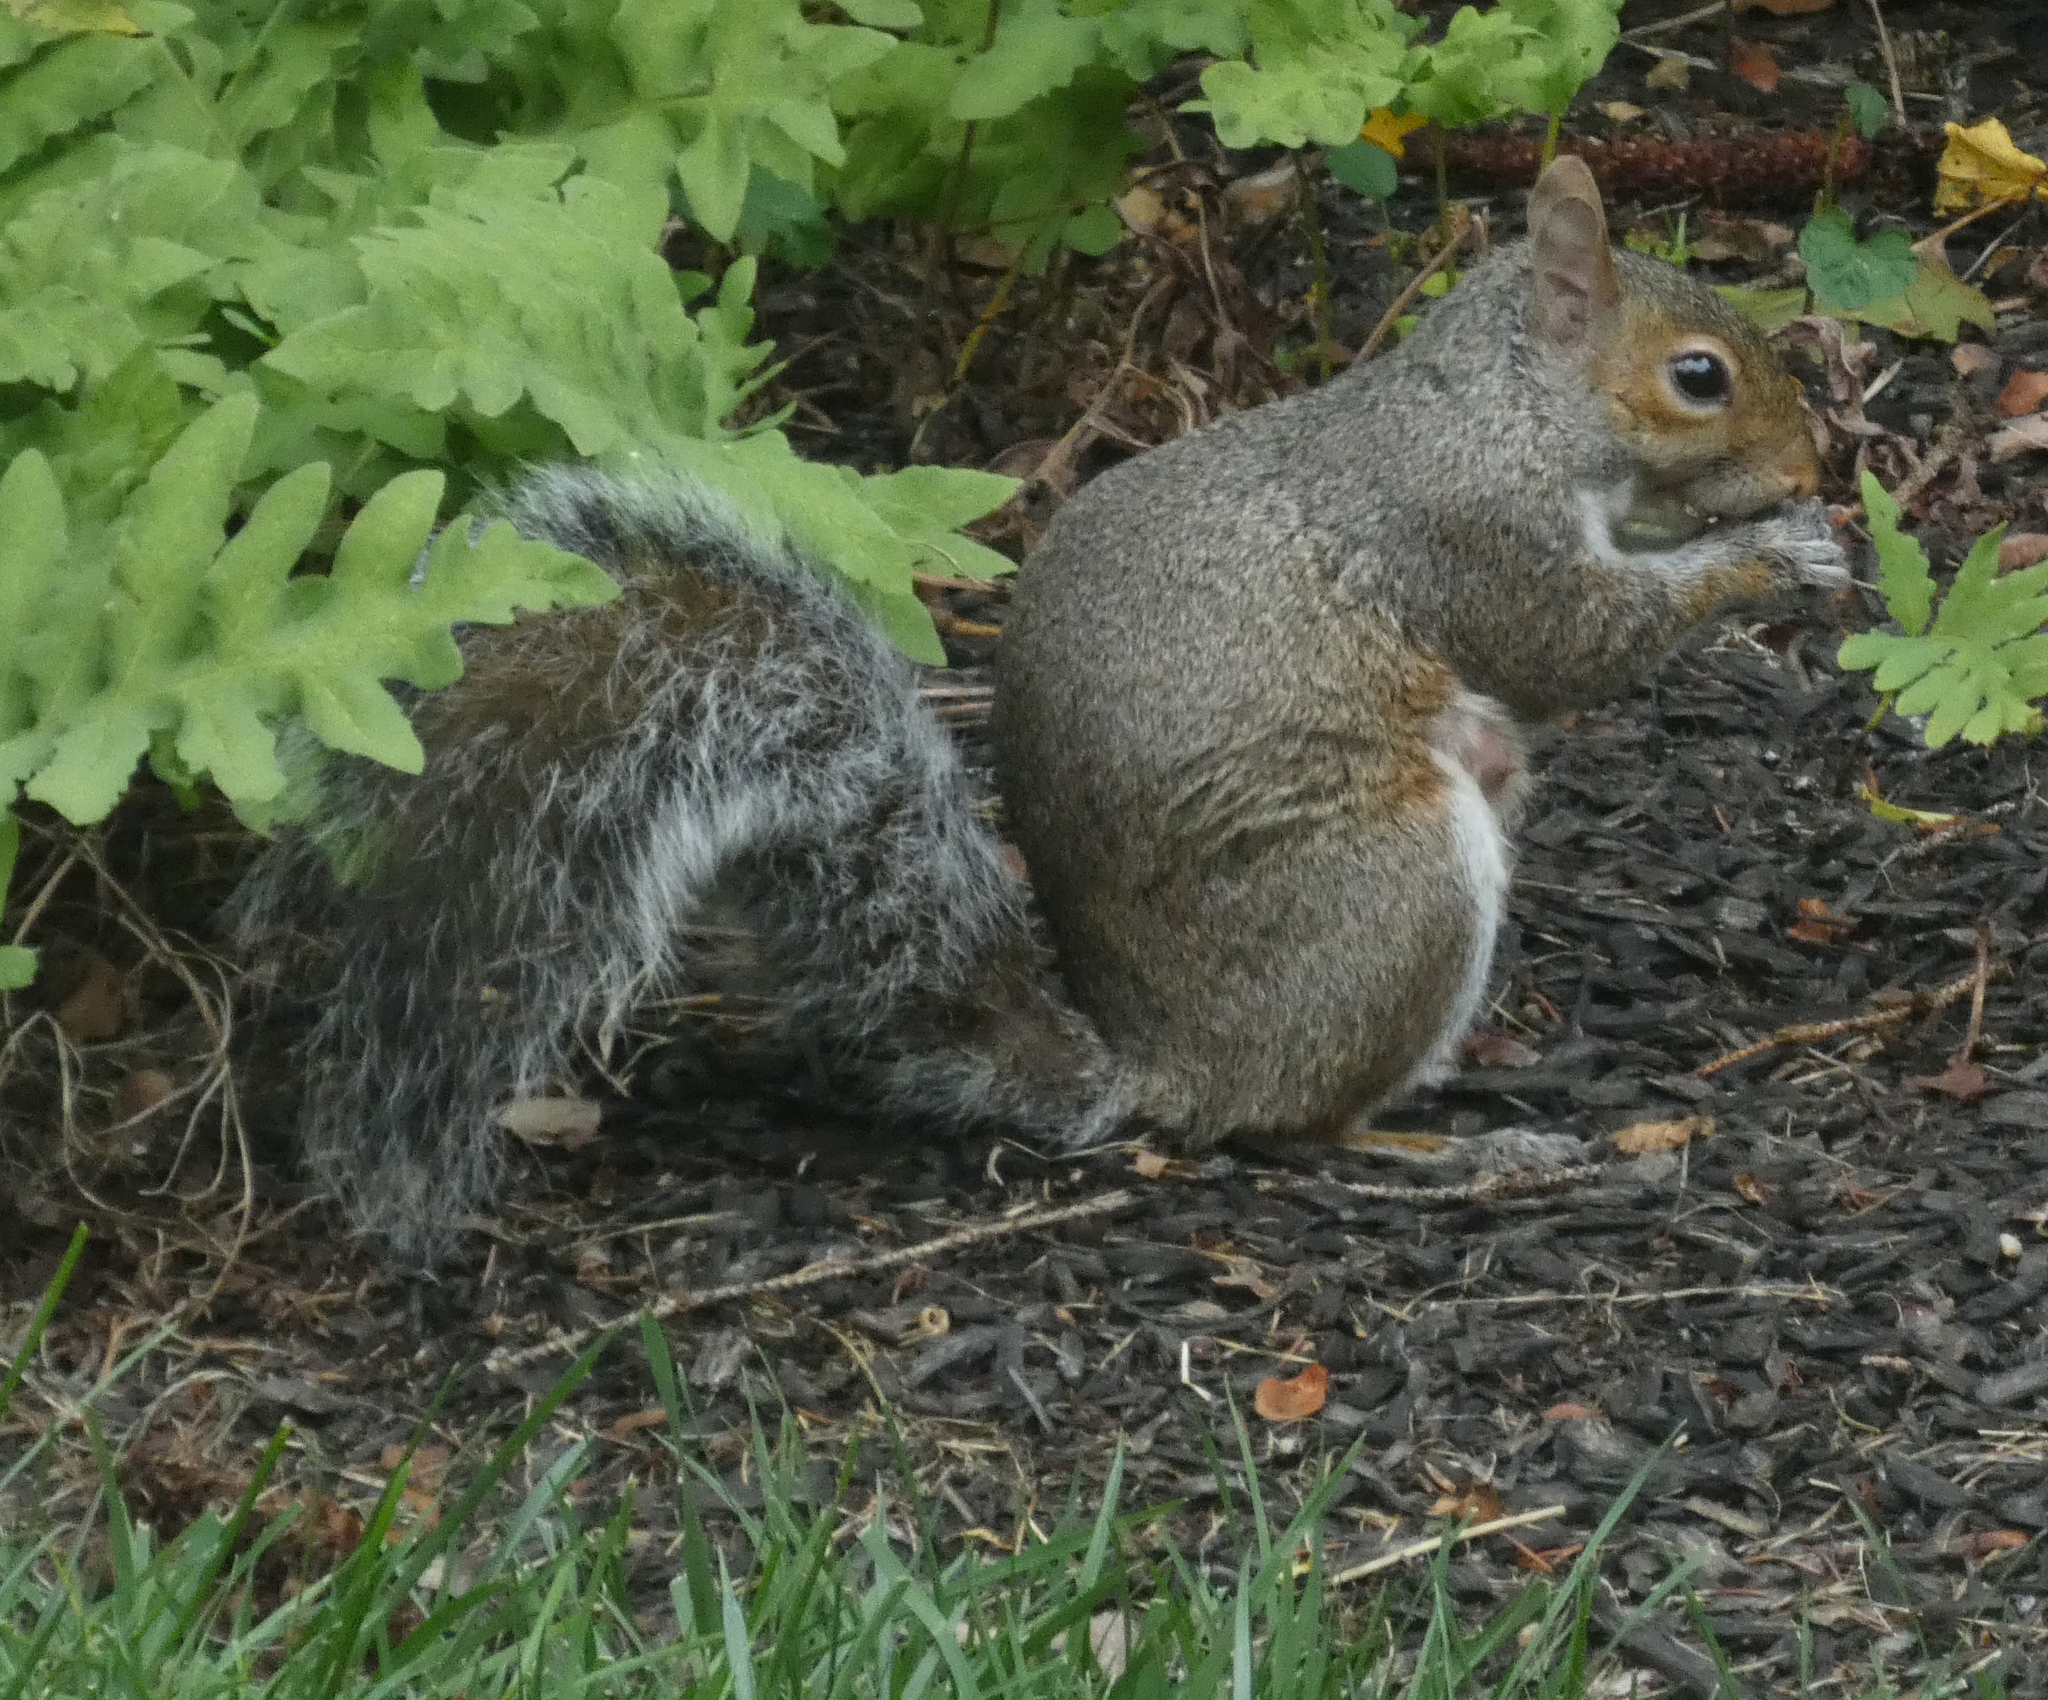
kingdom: Animalia
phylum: Chordata
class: Mammalia
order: Rodentia
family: Sciuridae
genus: Sciurus
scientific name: Sciurus carolinensis
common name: Eastern gray squirrel
